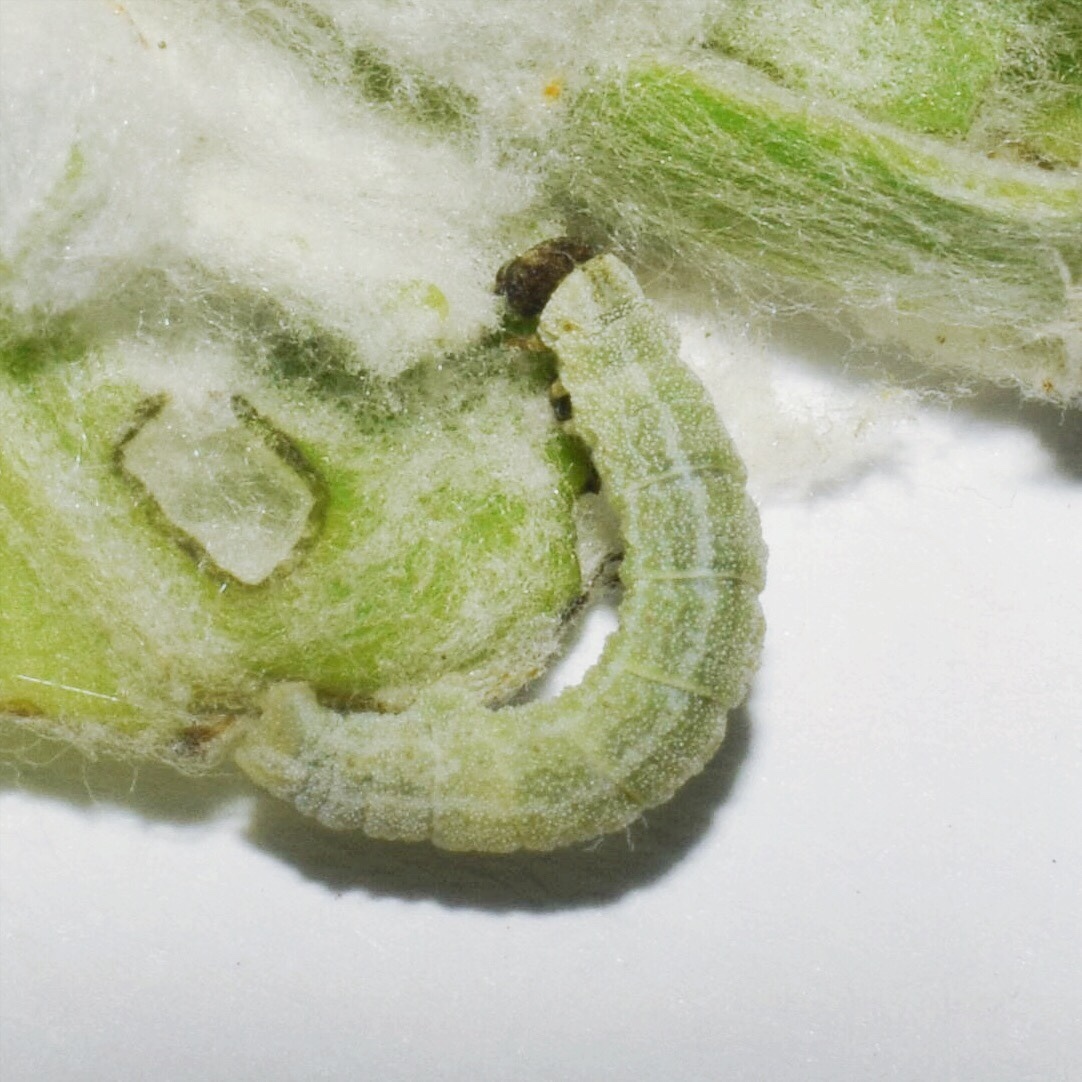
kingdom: Animalia
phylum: Arthropoda
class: Insecta
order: Lepidoptera
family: Geometridae
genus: Comostolopsis
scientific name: Comostolopsis germana
